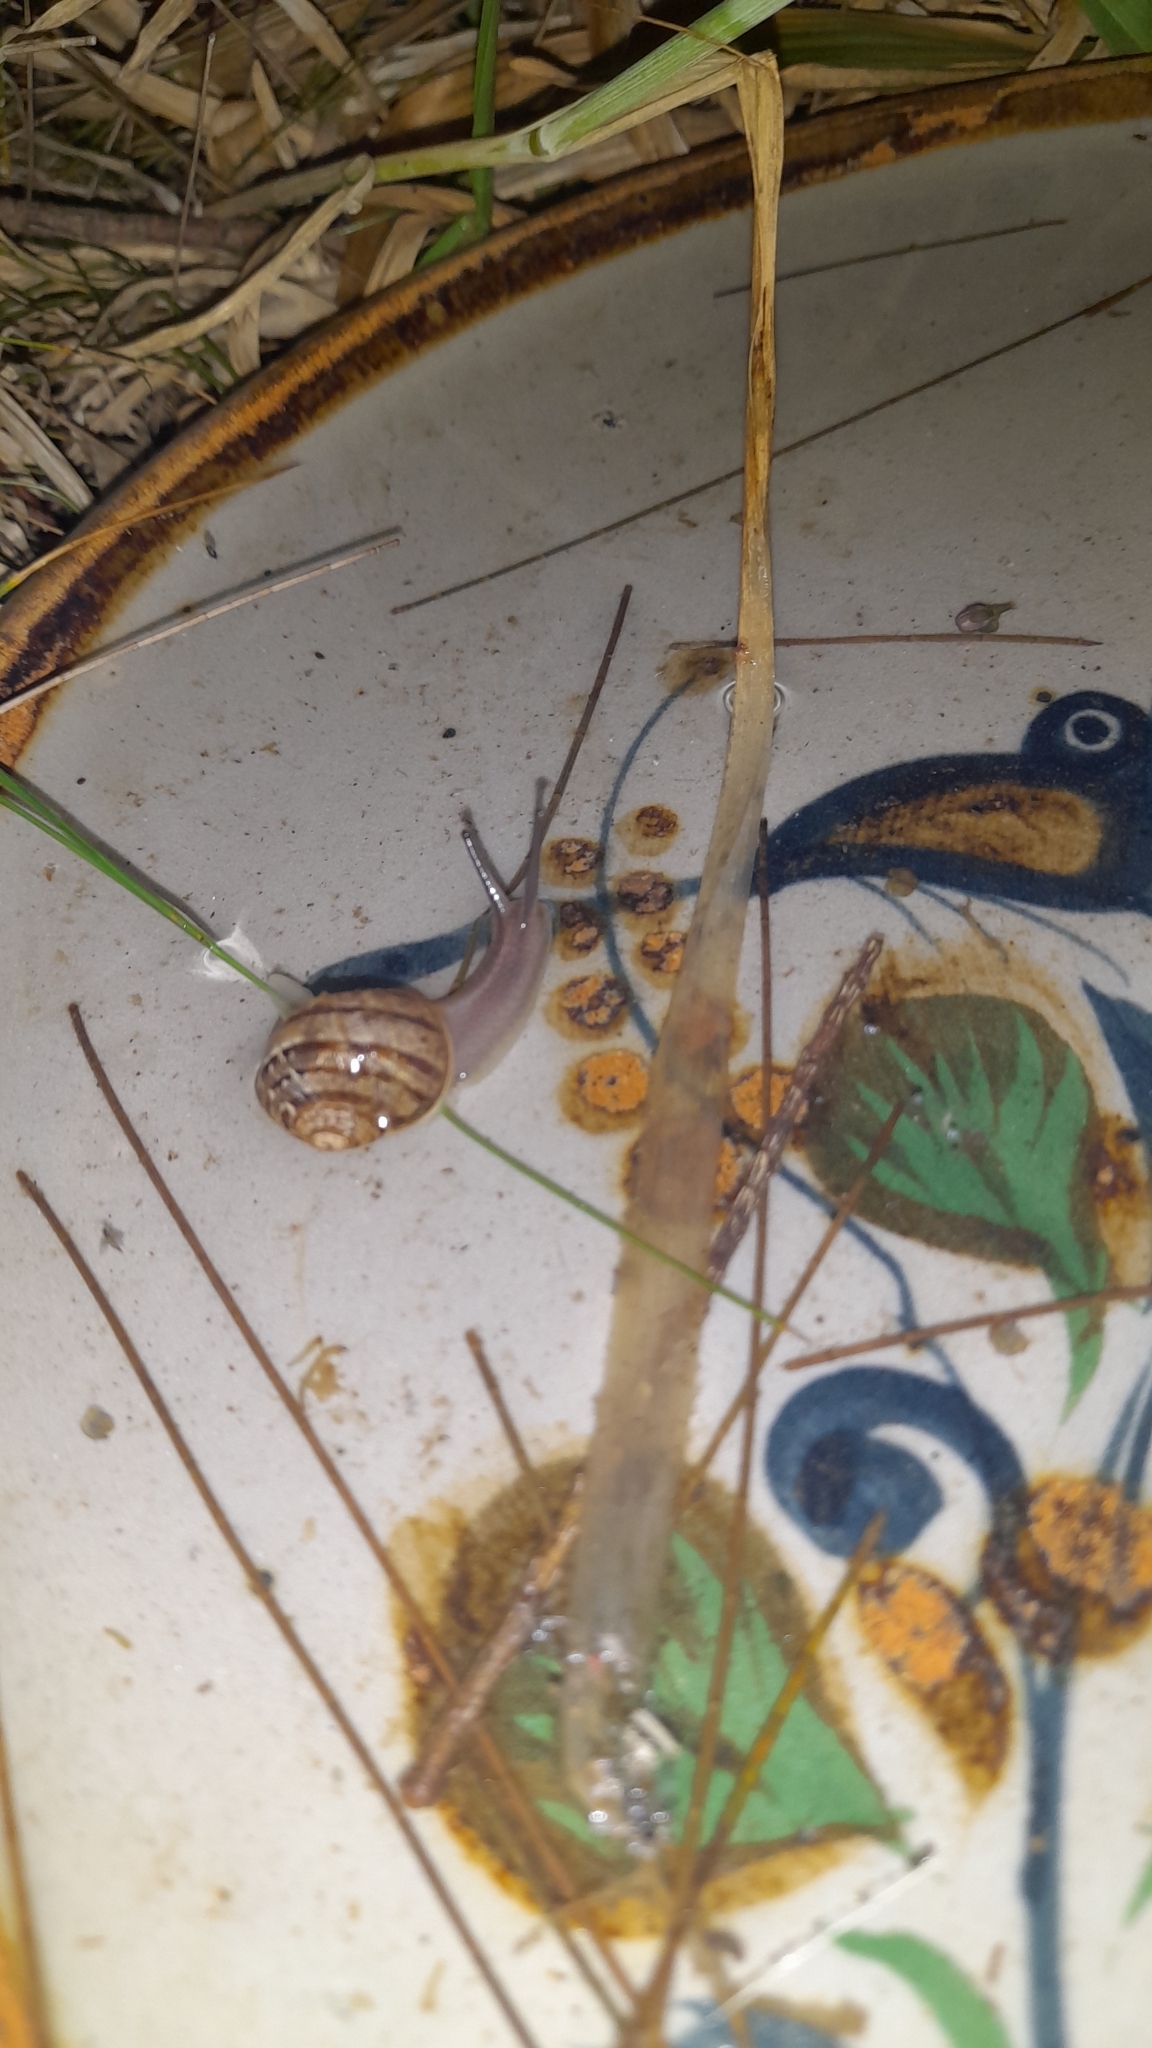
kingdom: Animalia
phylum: Mollusca
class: Gastropoda
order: Stylommatophora
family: Helicidae
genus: Cornu
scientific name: Cornu aspersum
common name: Brown garden snail
